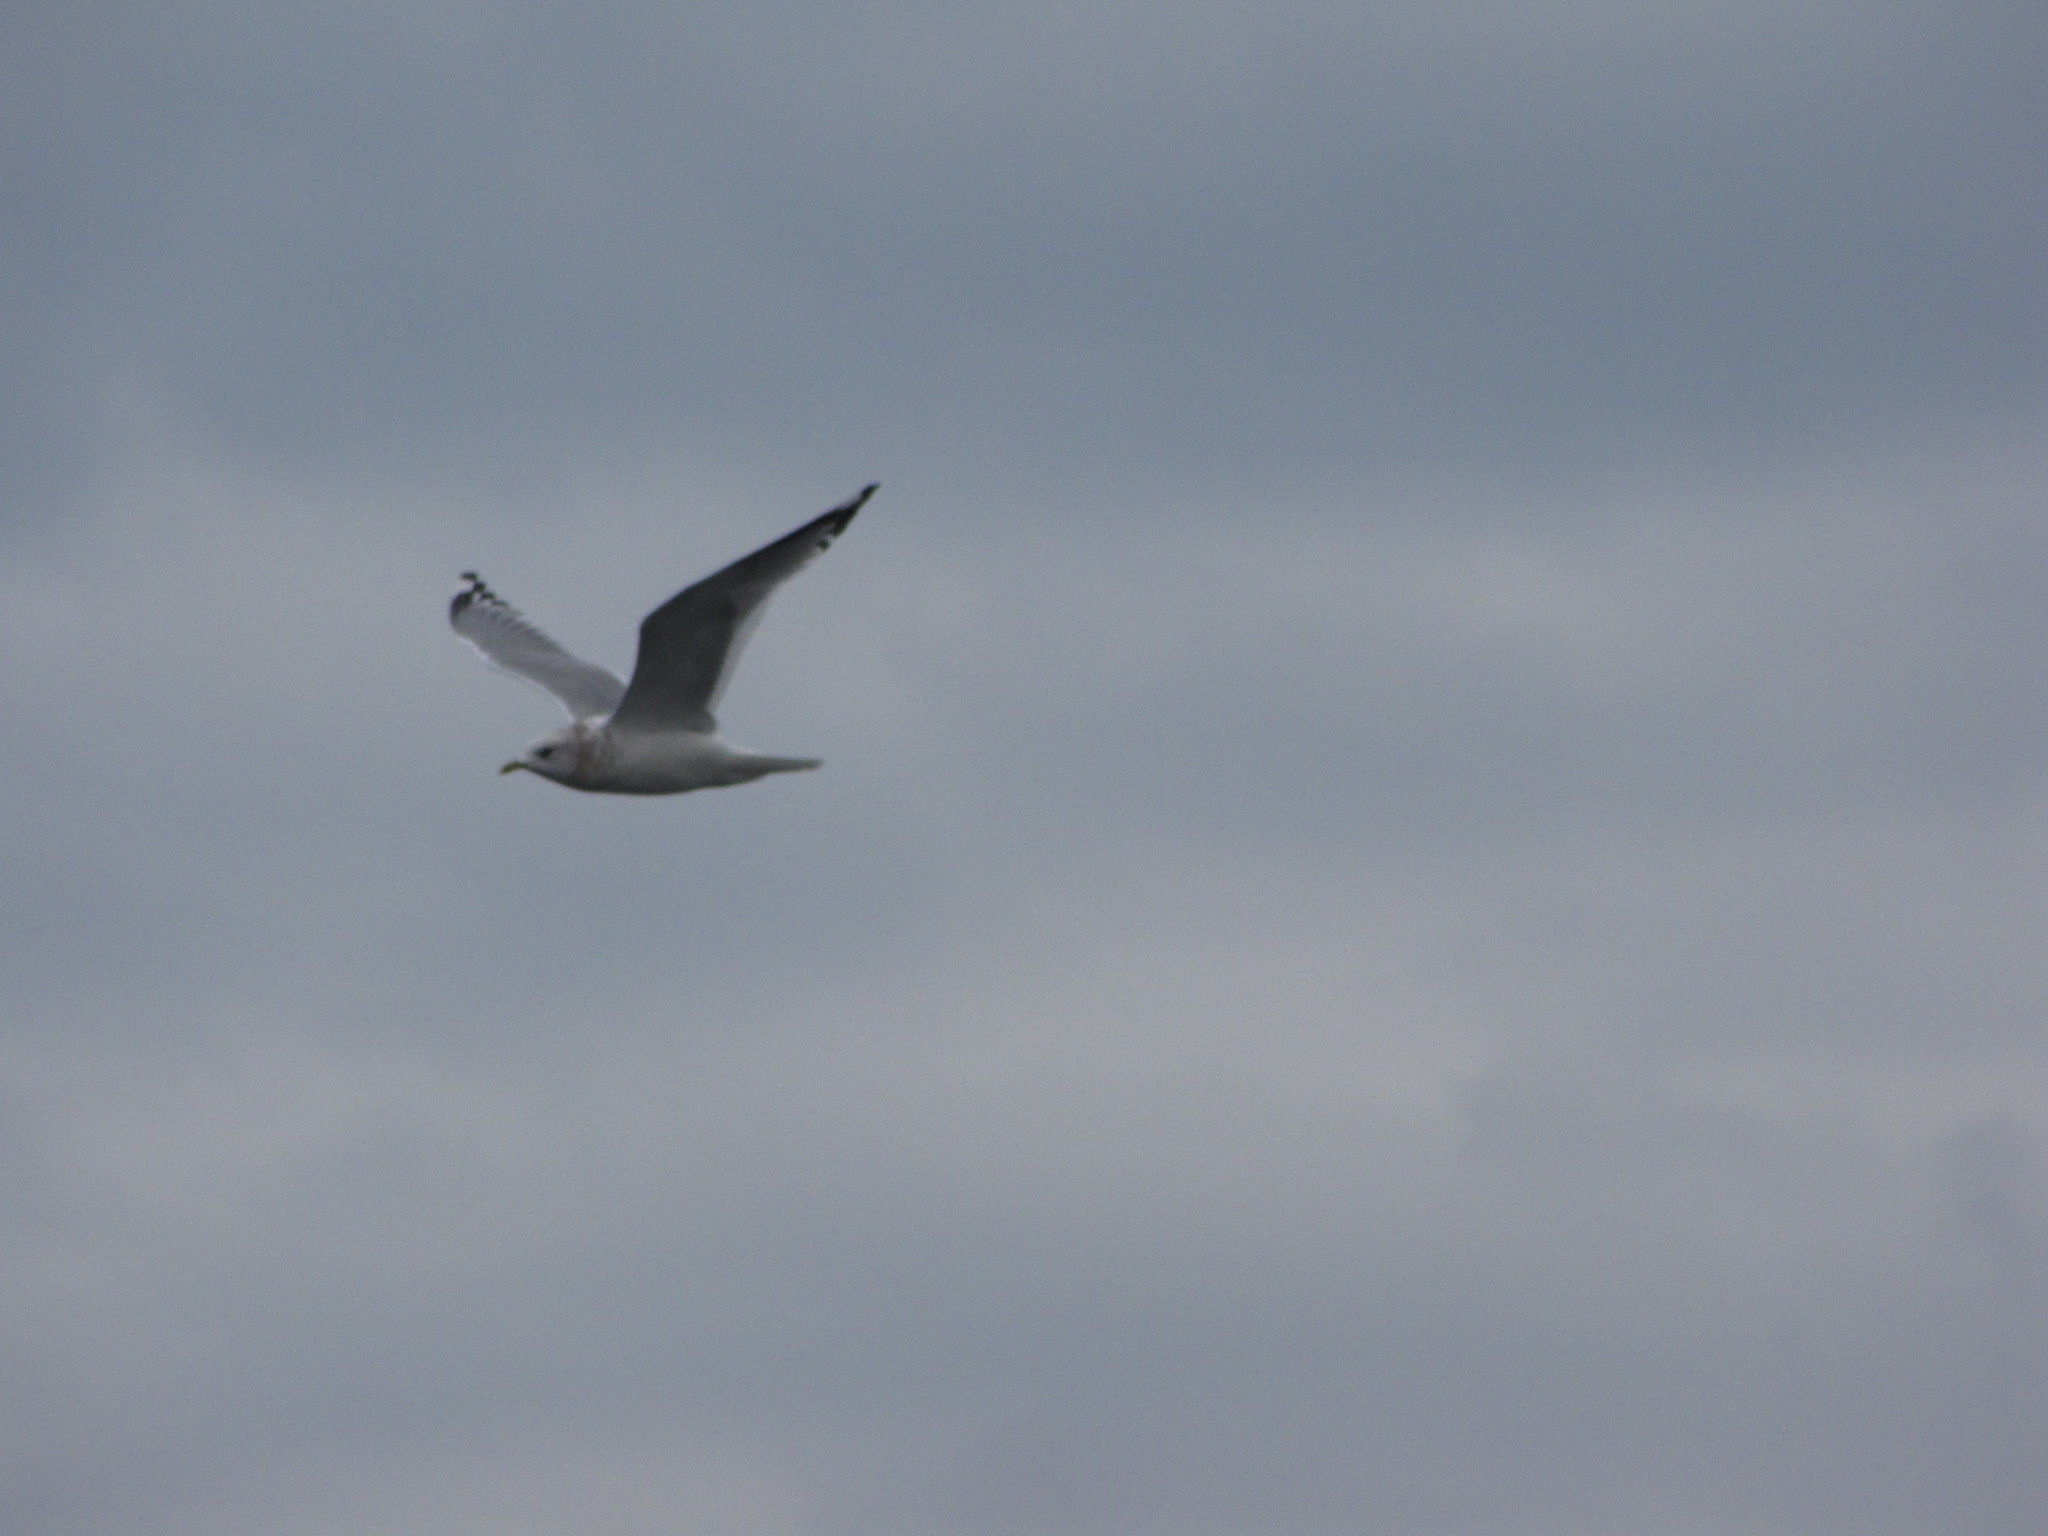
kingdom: Animalia
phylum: Chordata
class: Aves
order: Charadriiformes
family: Laridae
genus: Larus
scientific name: Larus brachyrhynchus
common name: Short-billed gull
